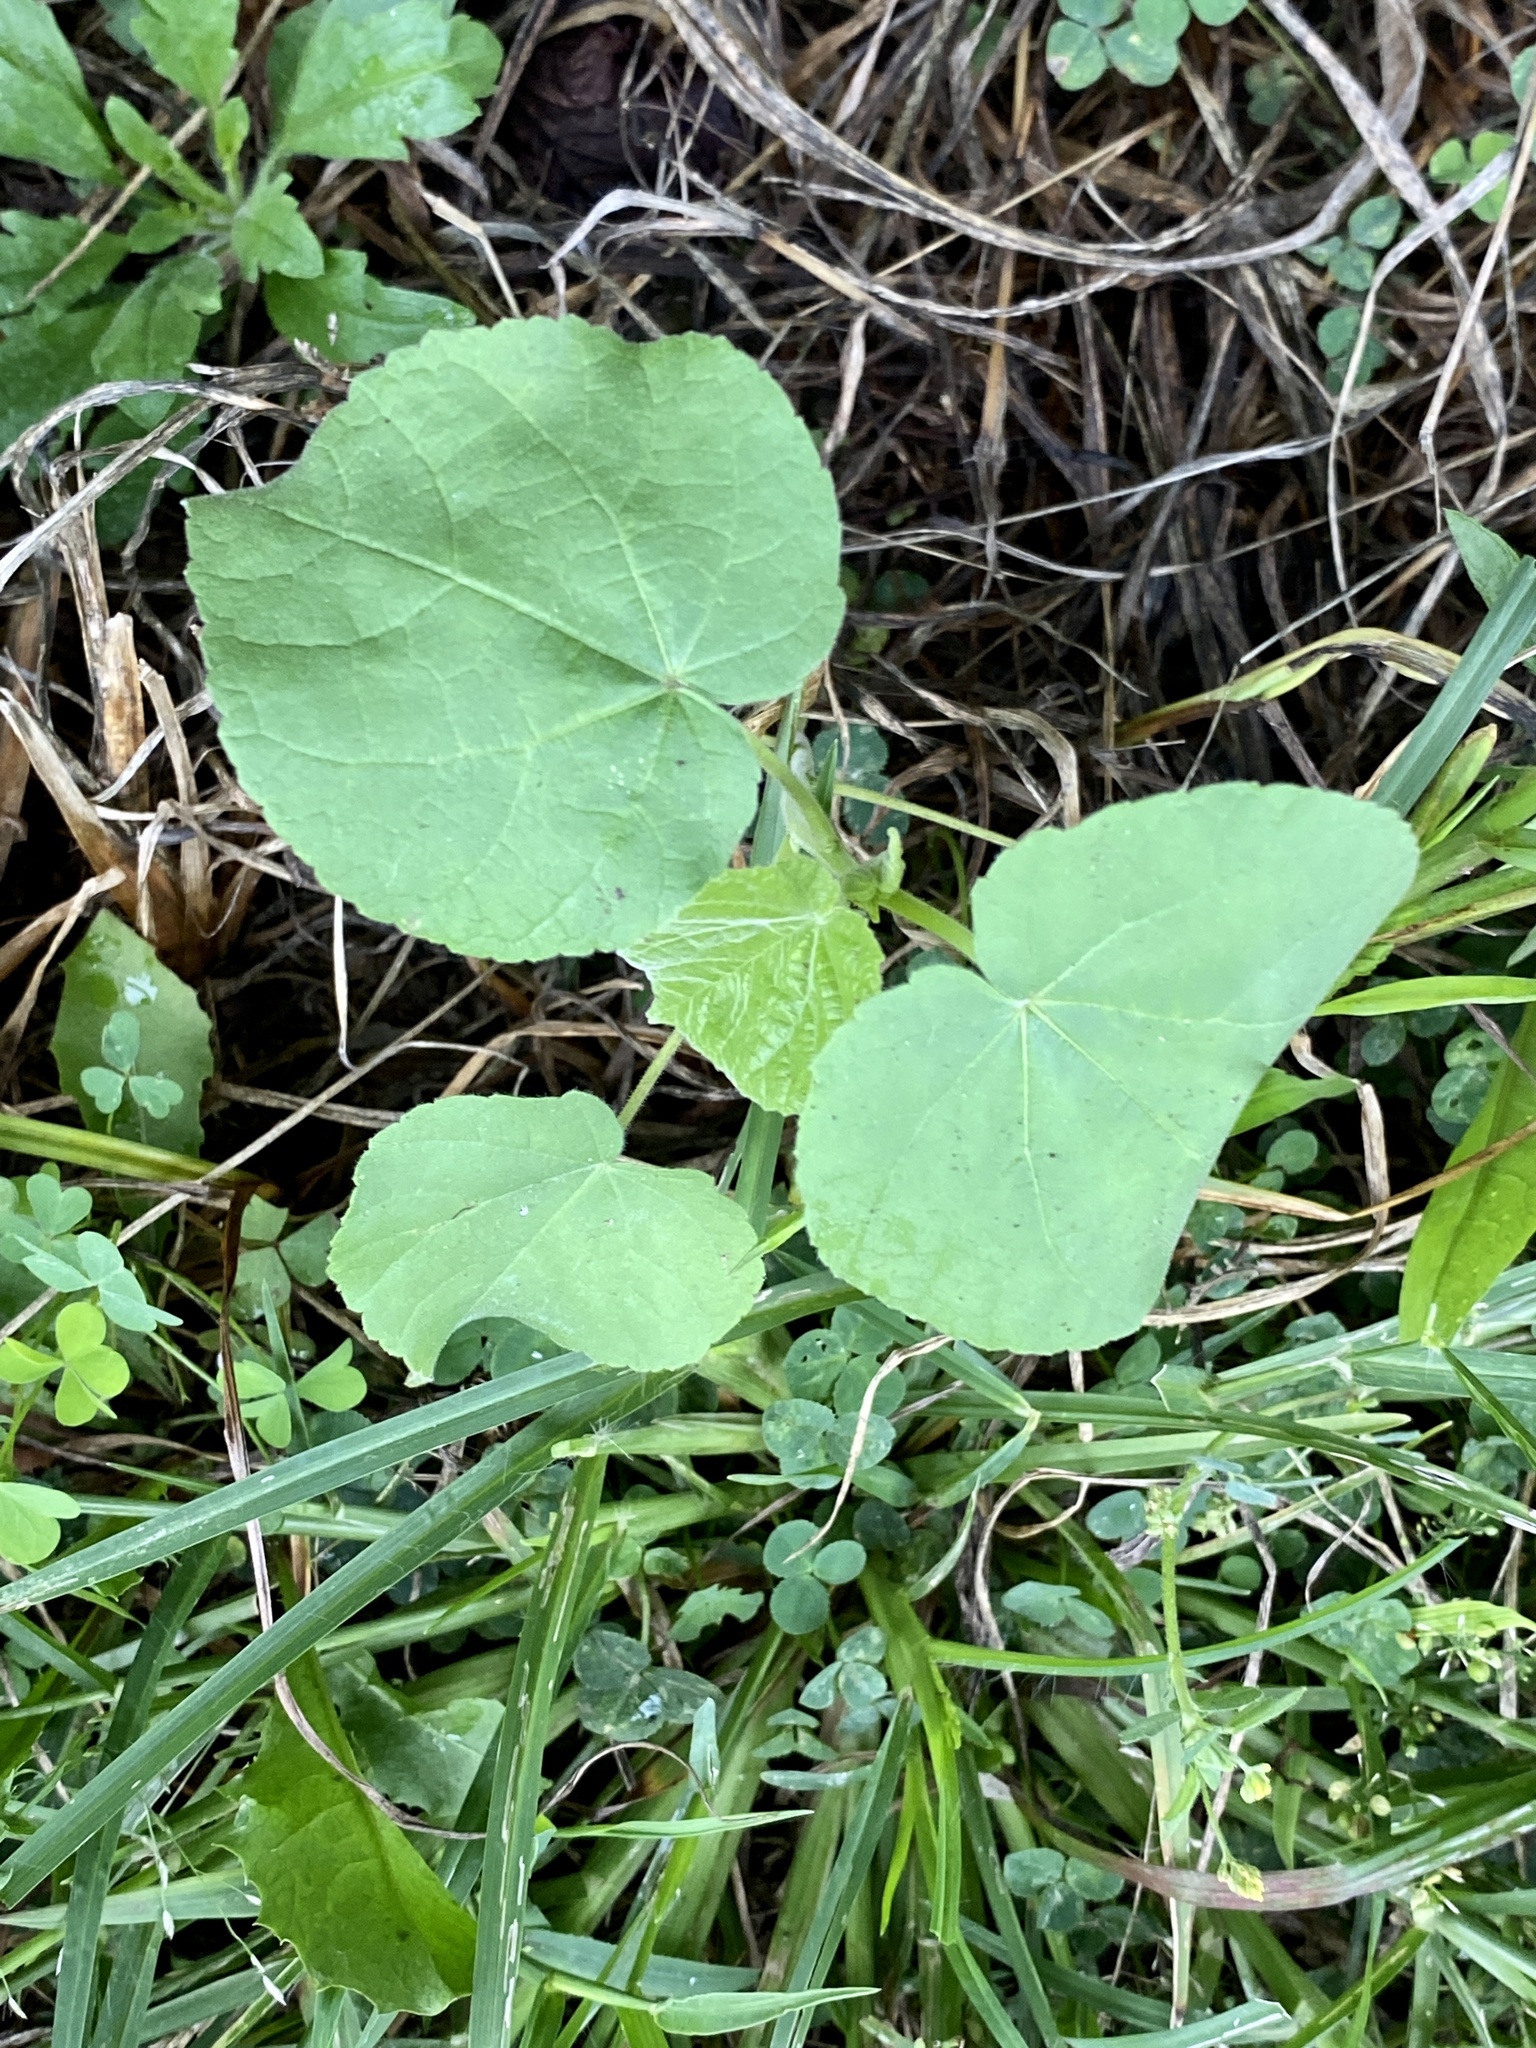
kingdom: Plantae
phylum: Tracheophyta
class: Magnoliopsida
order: Malvales
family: Malvaceae
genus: Abutilon
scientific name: Abutilon theophrasti
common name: Velvetleaf
